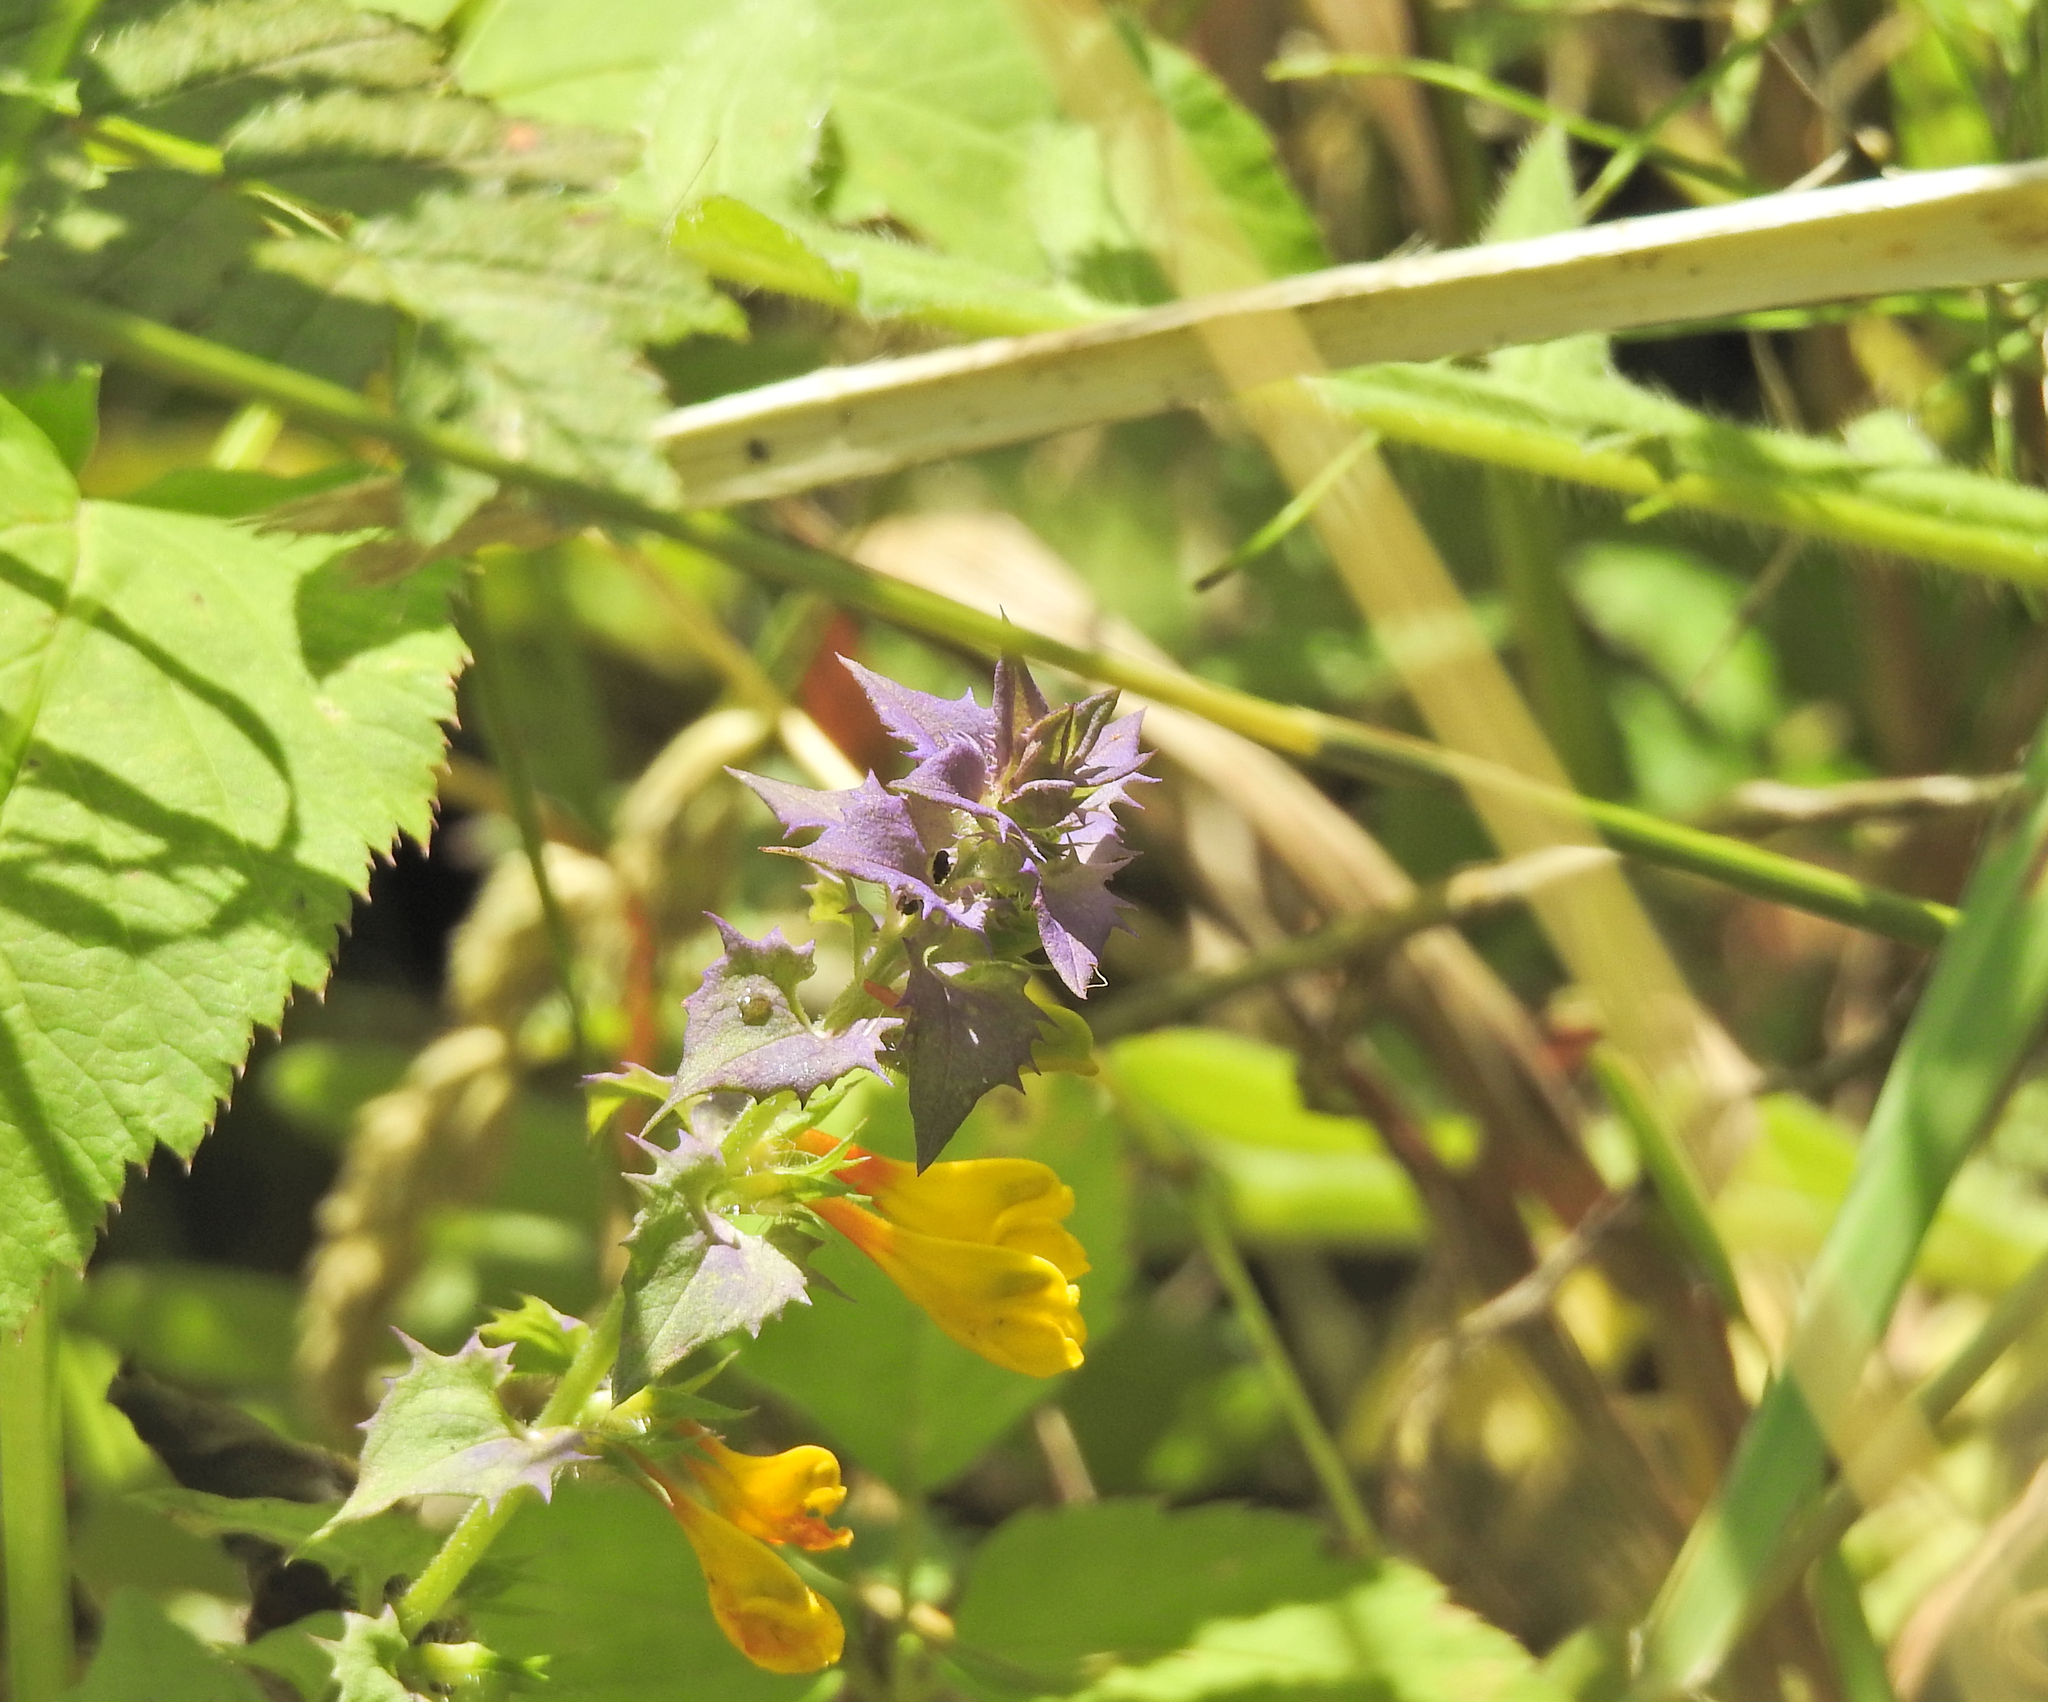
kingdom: Plantae
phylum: Tracheophyta
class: Magnoliopsida
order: Lamiales
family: Orobanchaceae
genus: Melampyrum
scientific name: Melampyrum nemorosum
